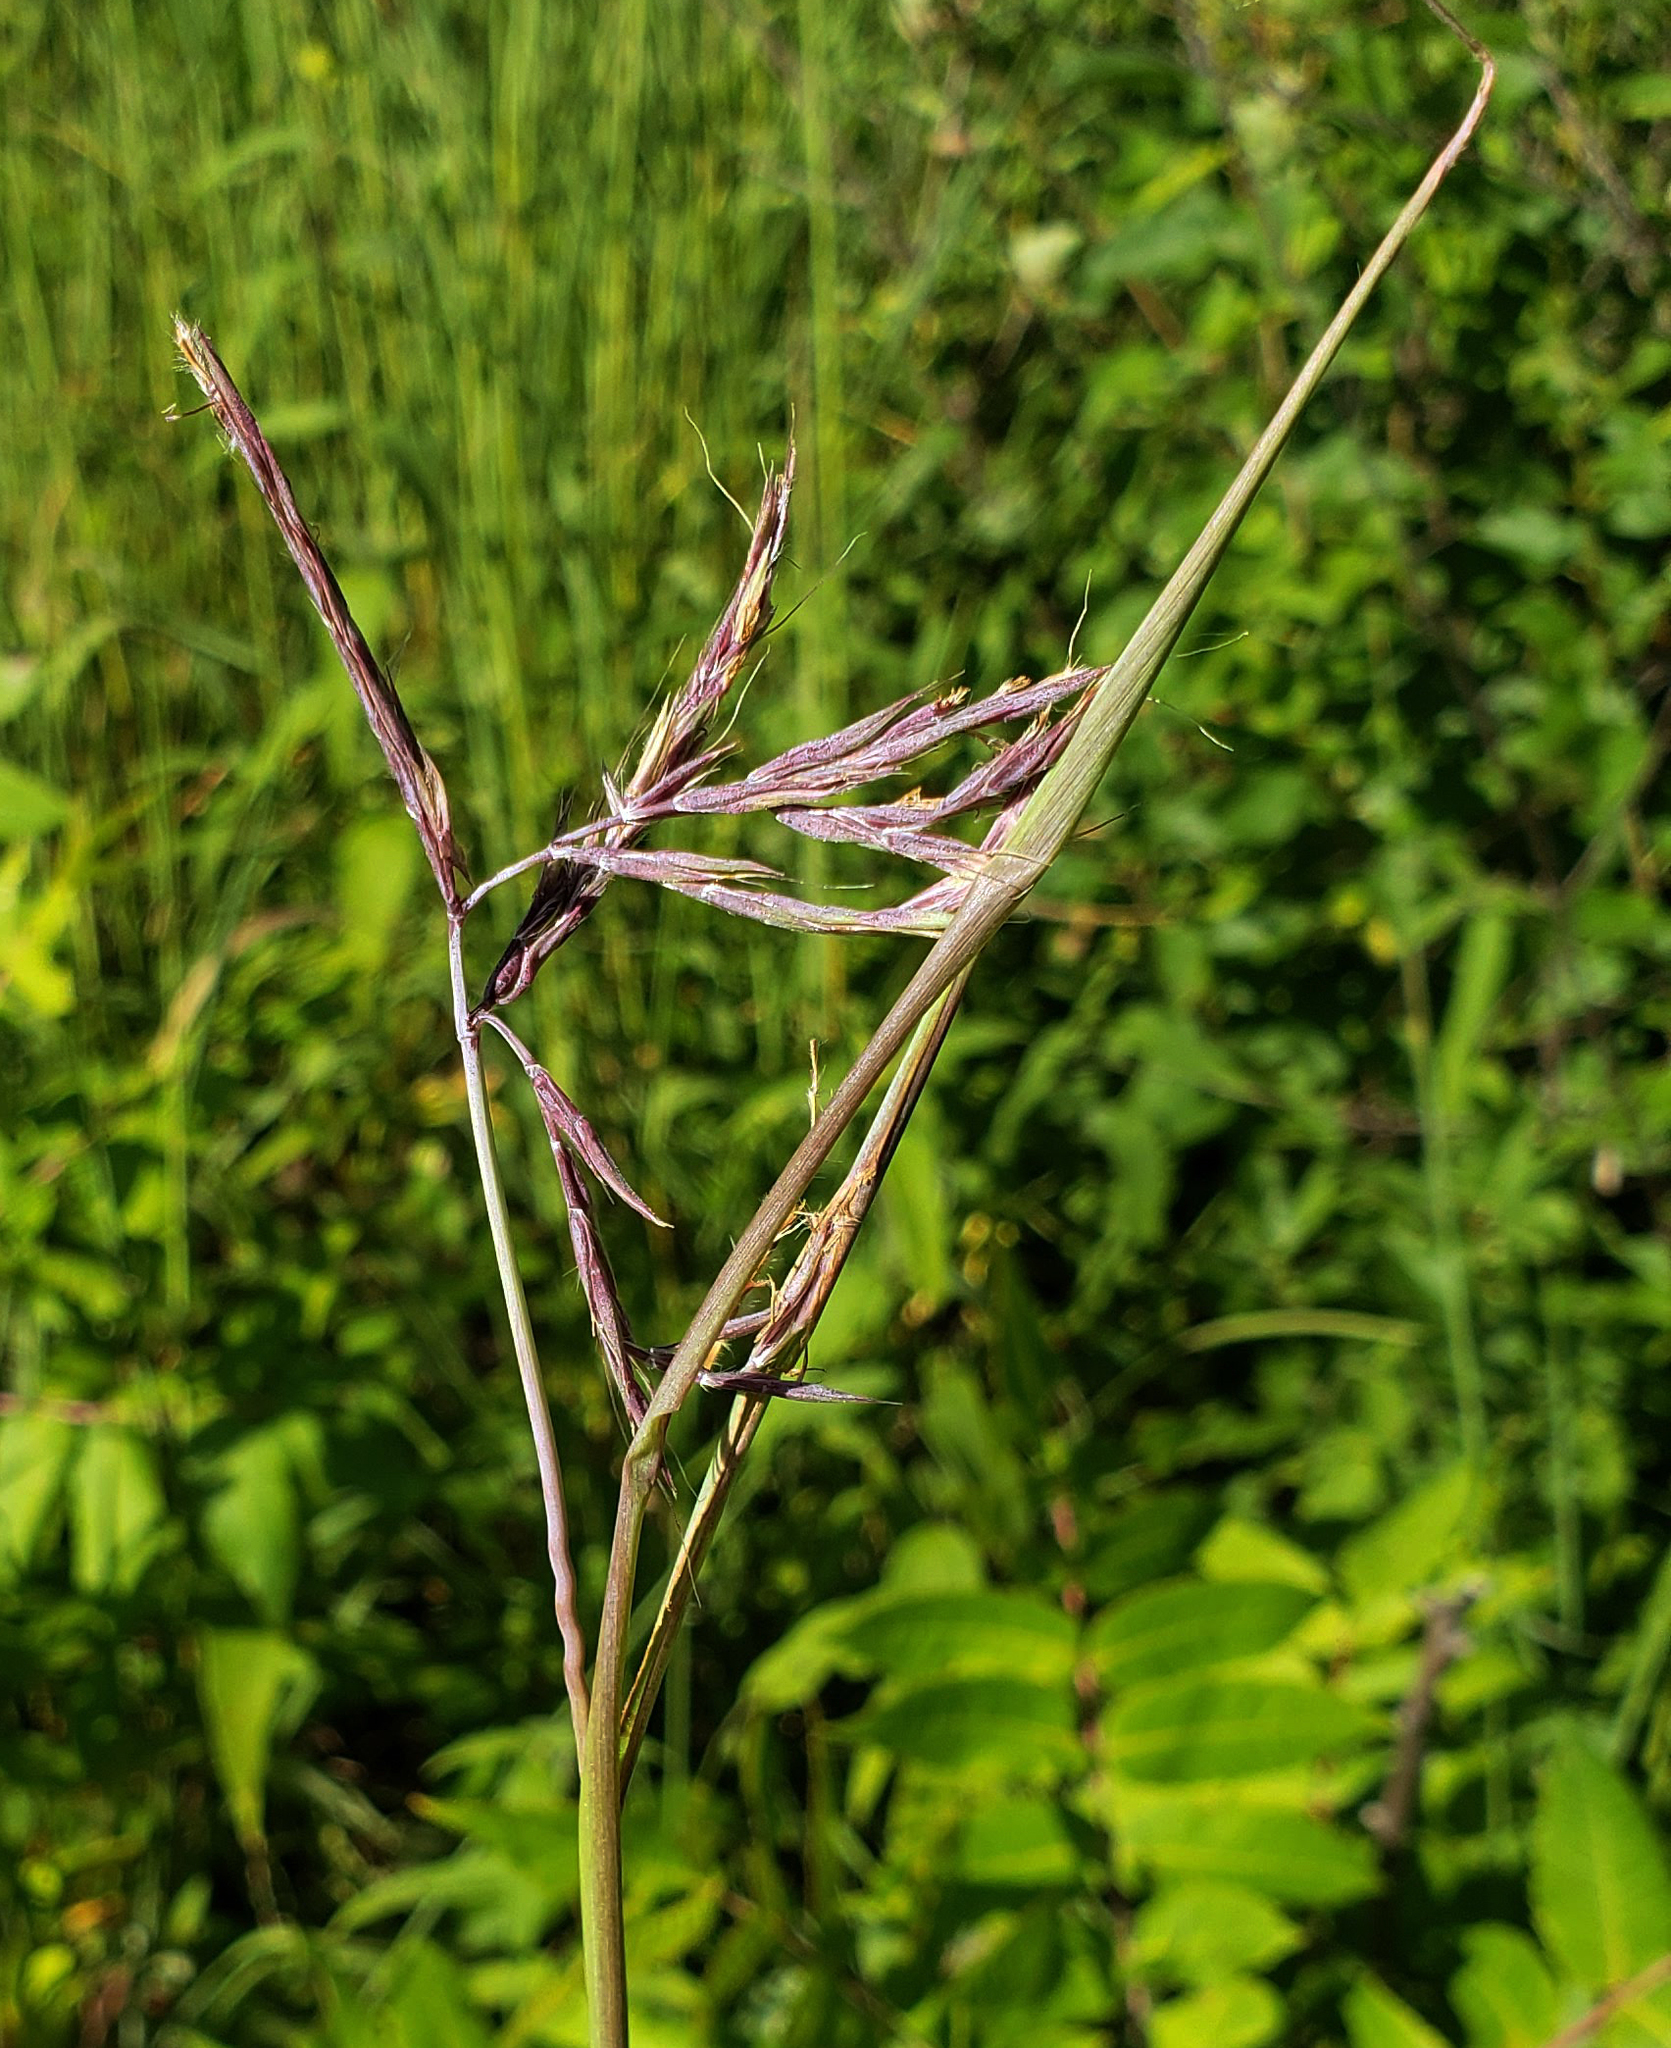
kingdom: Plantae
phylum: Tracheophyta
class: Liliopsida
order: Poales
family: Poaceae
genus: Andropogon
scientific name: Andropogon gerardi
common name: Big bluestem
